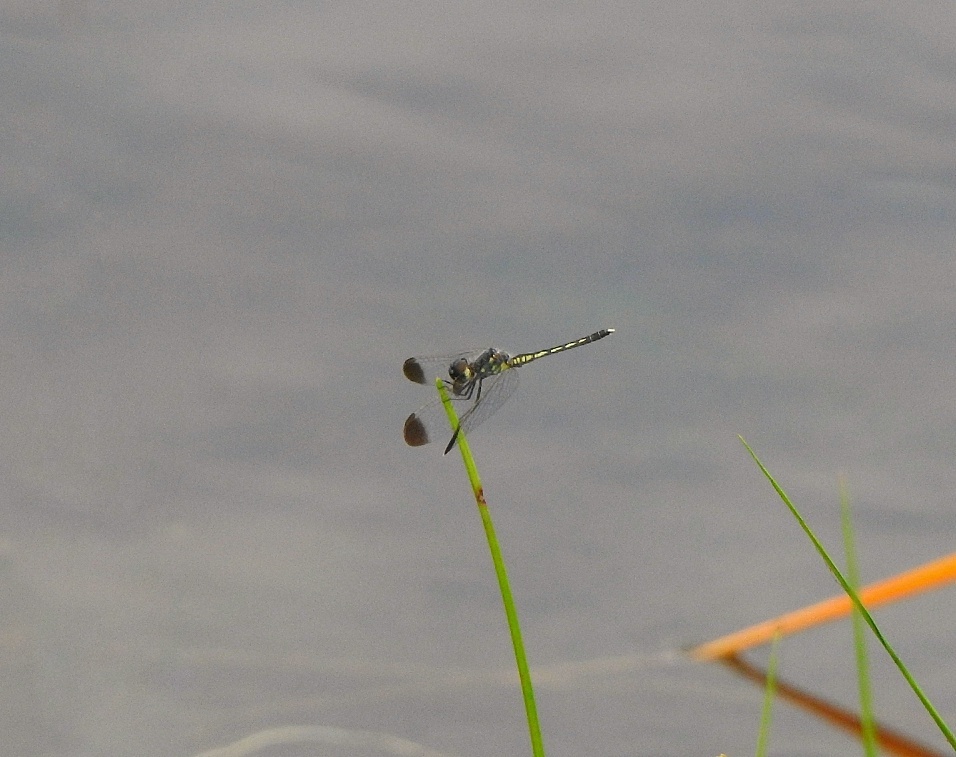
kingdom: Animalia
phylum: Arthropoda
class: Insecta
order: Odonata
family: Libellulidae
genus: Diplacodes
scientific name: Diplacodes nebulosa
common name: Black-tipped percher
